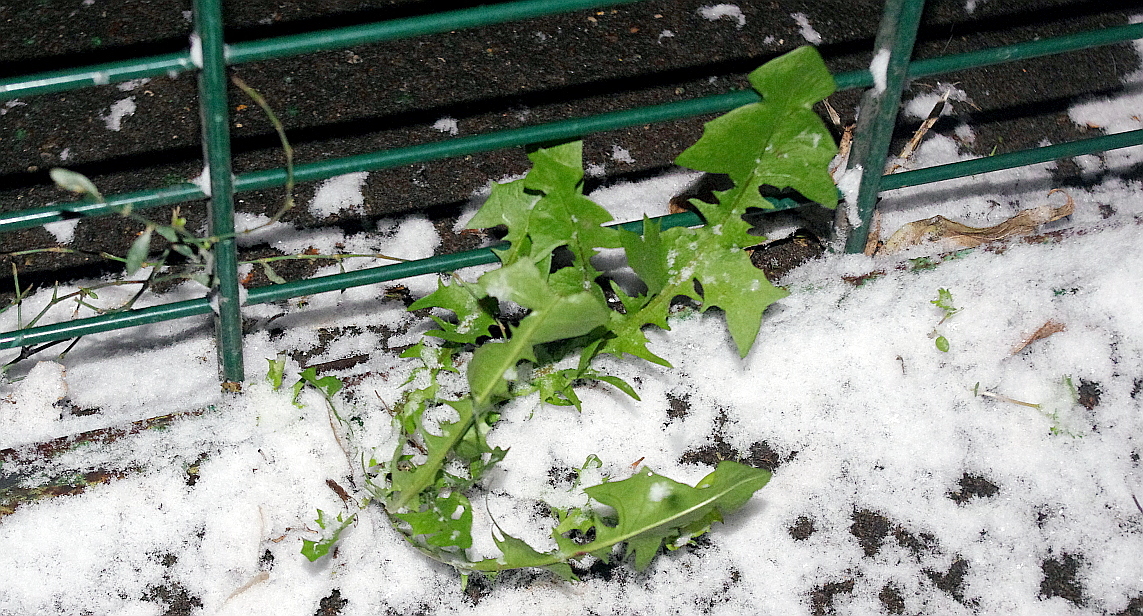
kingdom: Plantae
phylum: Tracheophyta
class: Magnoliopsida
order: Asterales
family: Asteraceae
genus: Taraxacum
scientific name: Taraxacum officinale
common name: Common dandelion
